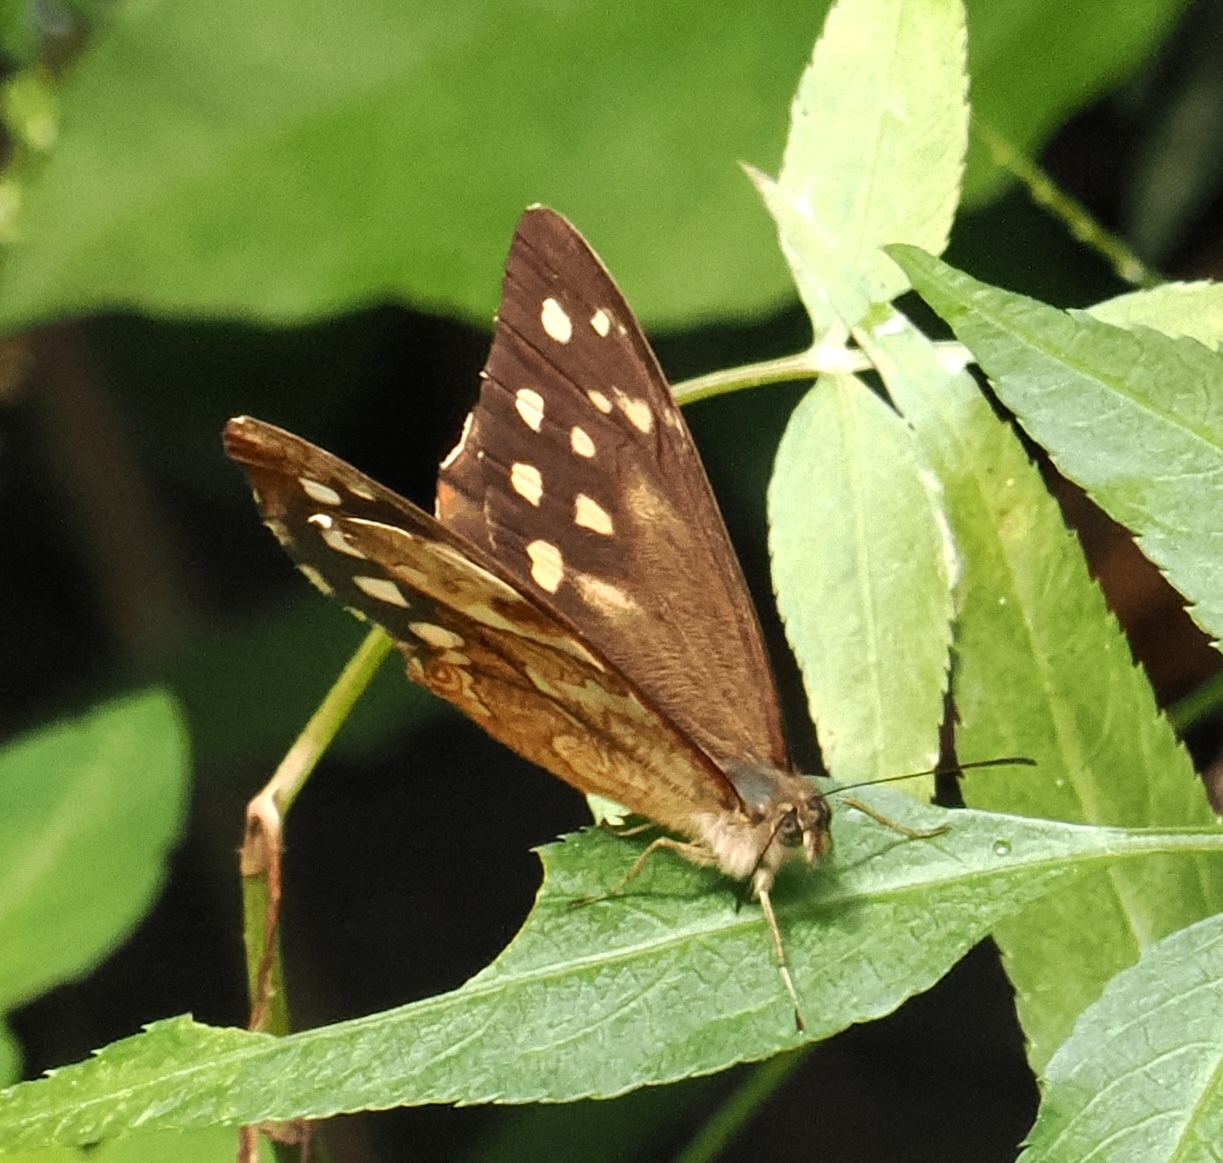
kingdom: Animalia
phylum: Arthropoda
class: Insecta
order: Lepidoptera
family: Nymphalidae
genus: Foetterleia
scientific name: Foetterleia schreineri
